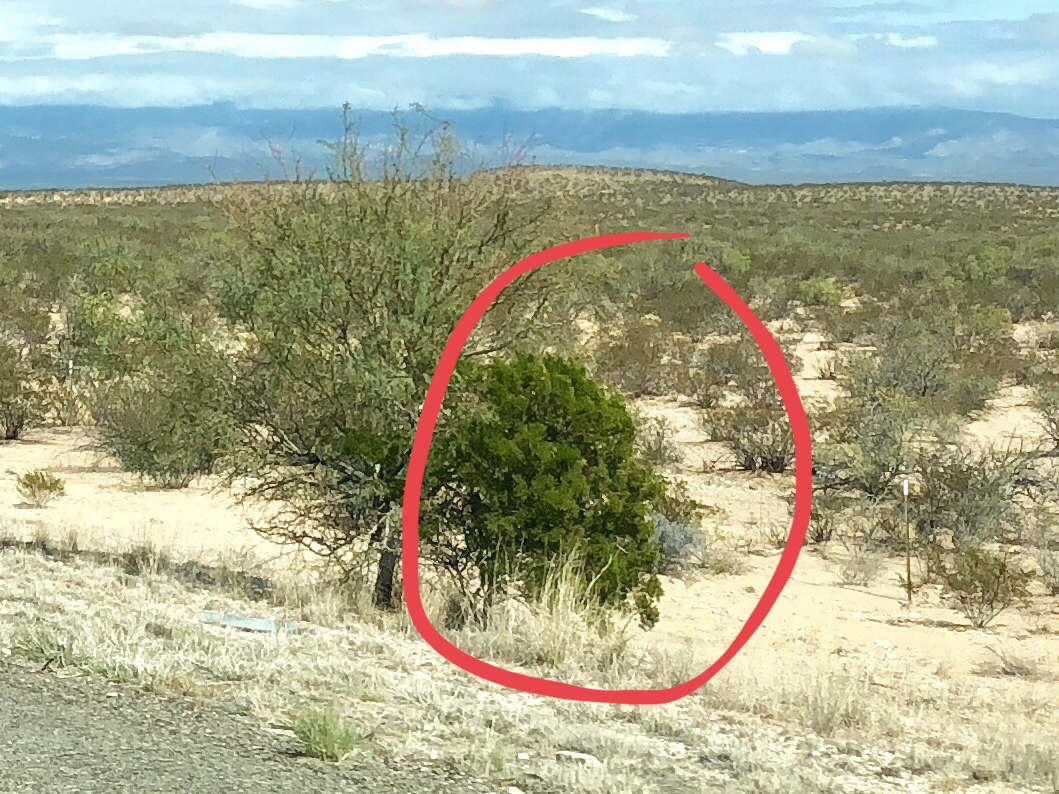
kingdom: Plantae
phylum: Tracheophyta
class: Magnoliopsida
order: Zygophyllales
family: Zygophyllaceae
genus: Larrea
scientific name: Larrea tridentata
